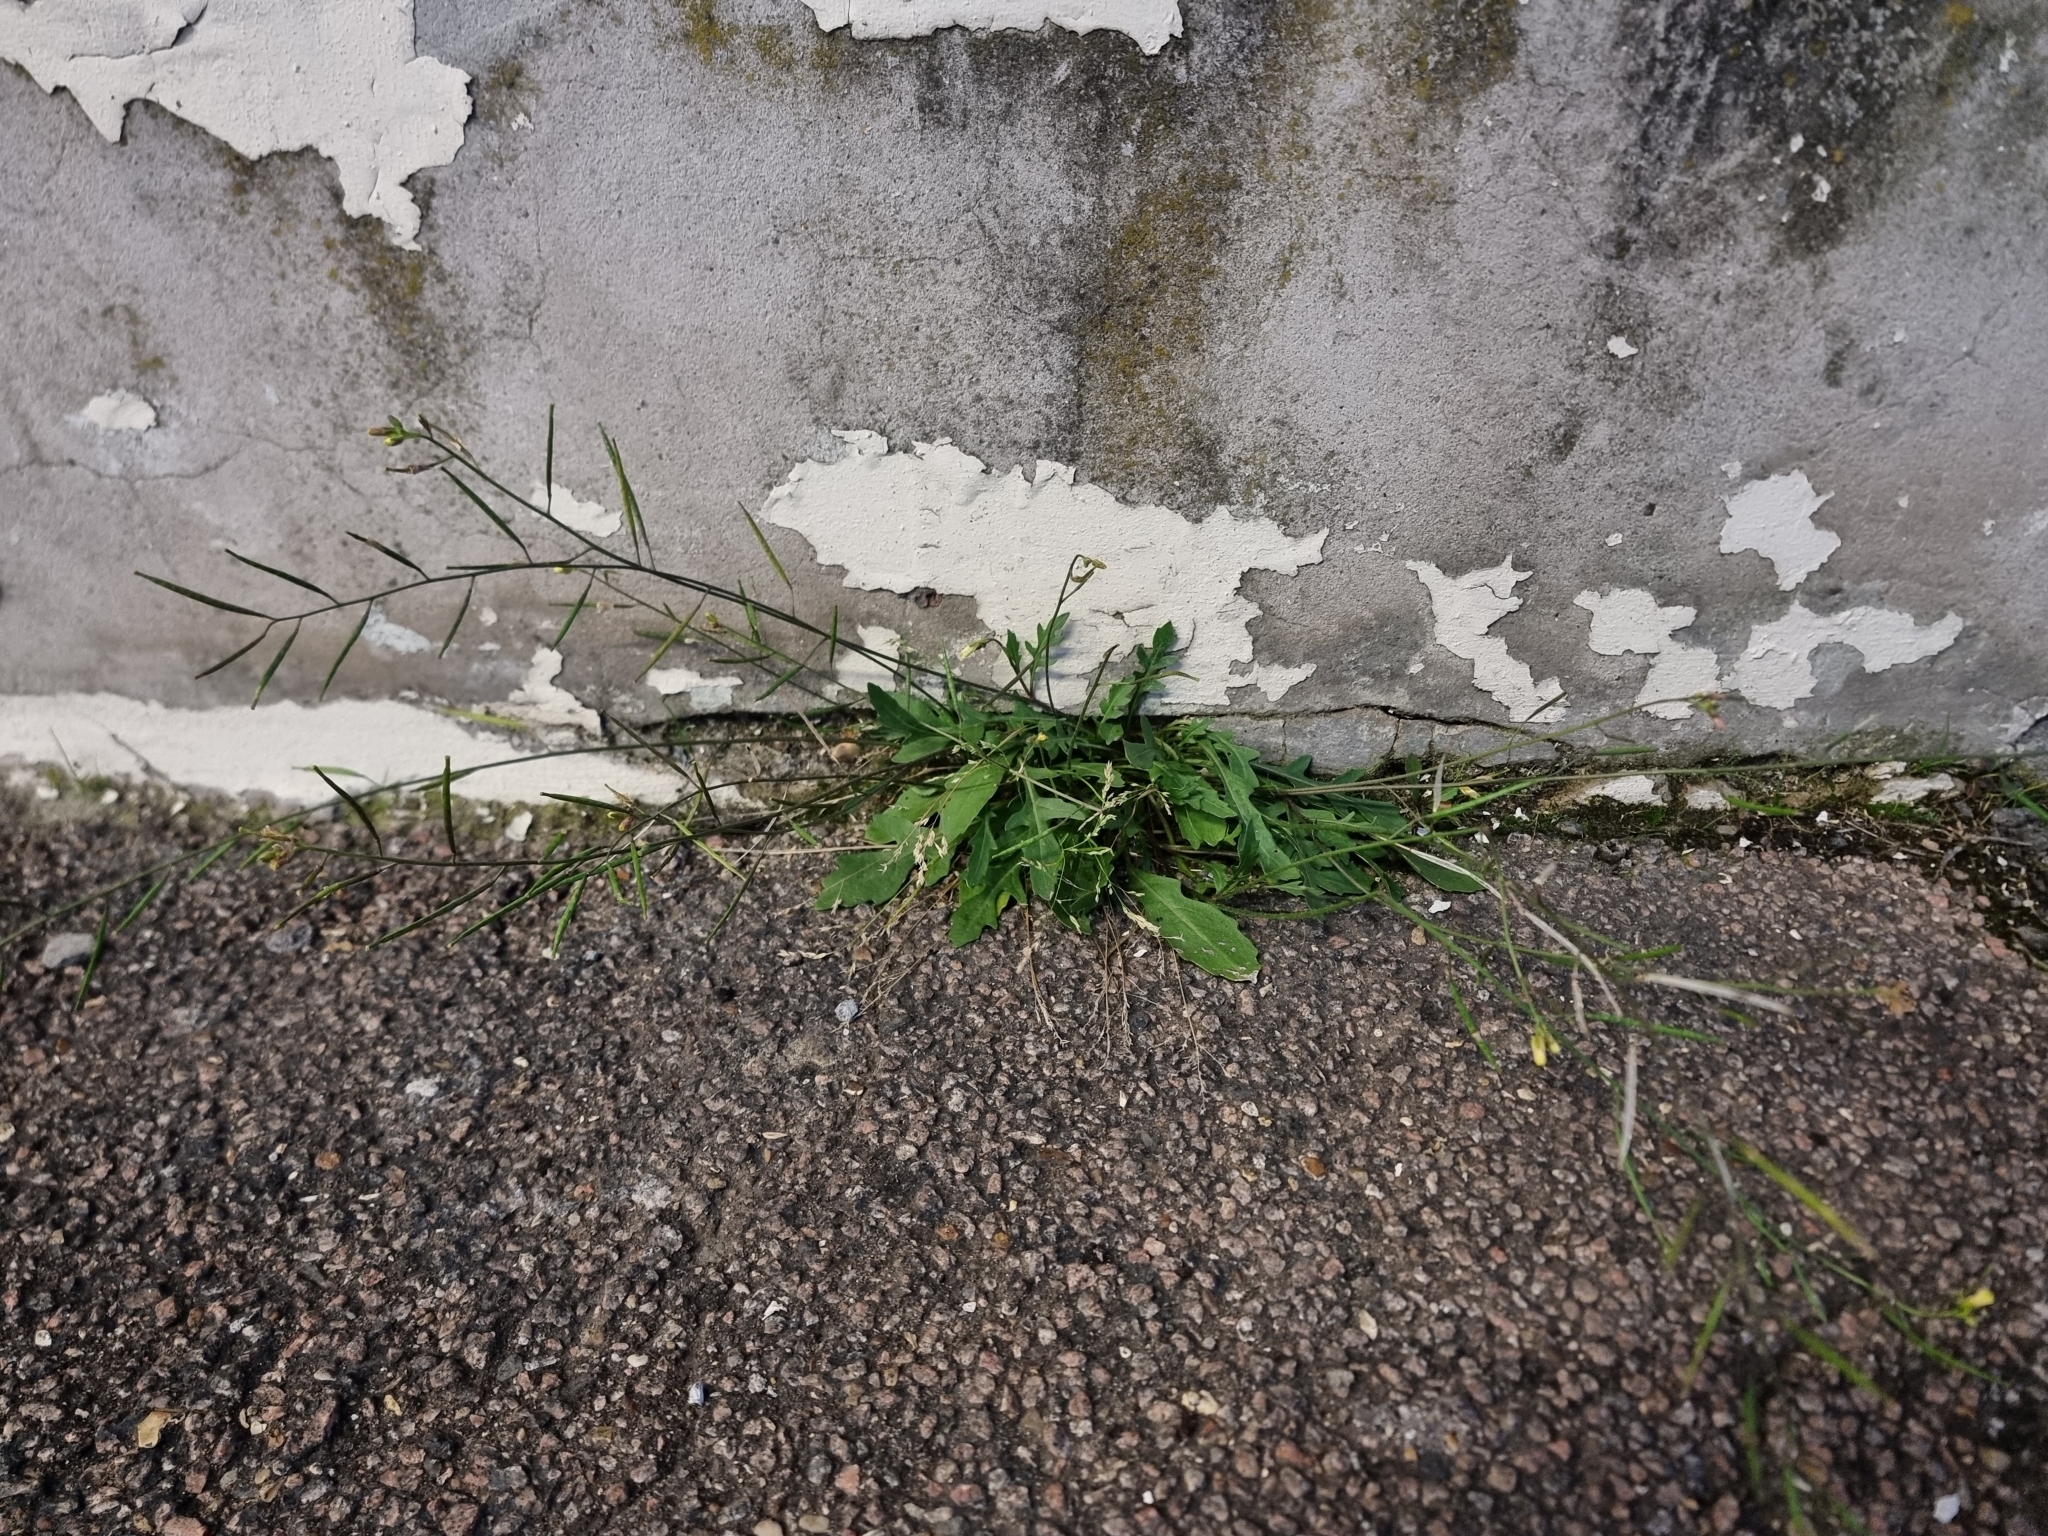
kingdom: Plantae
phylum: Tracheophyta
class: Magnoliopsida
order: Brassicales
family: Brassicaceae
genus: Diplotaxis
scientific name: Diplotaxis muralis
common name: Annual wall-rocket
